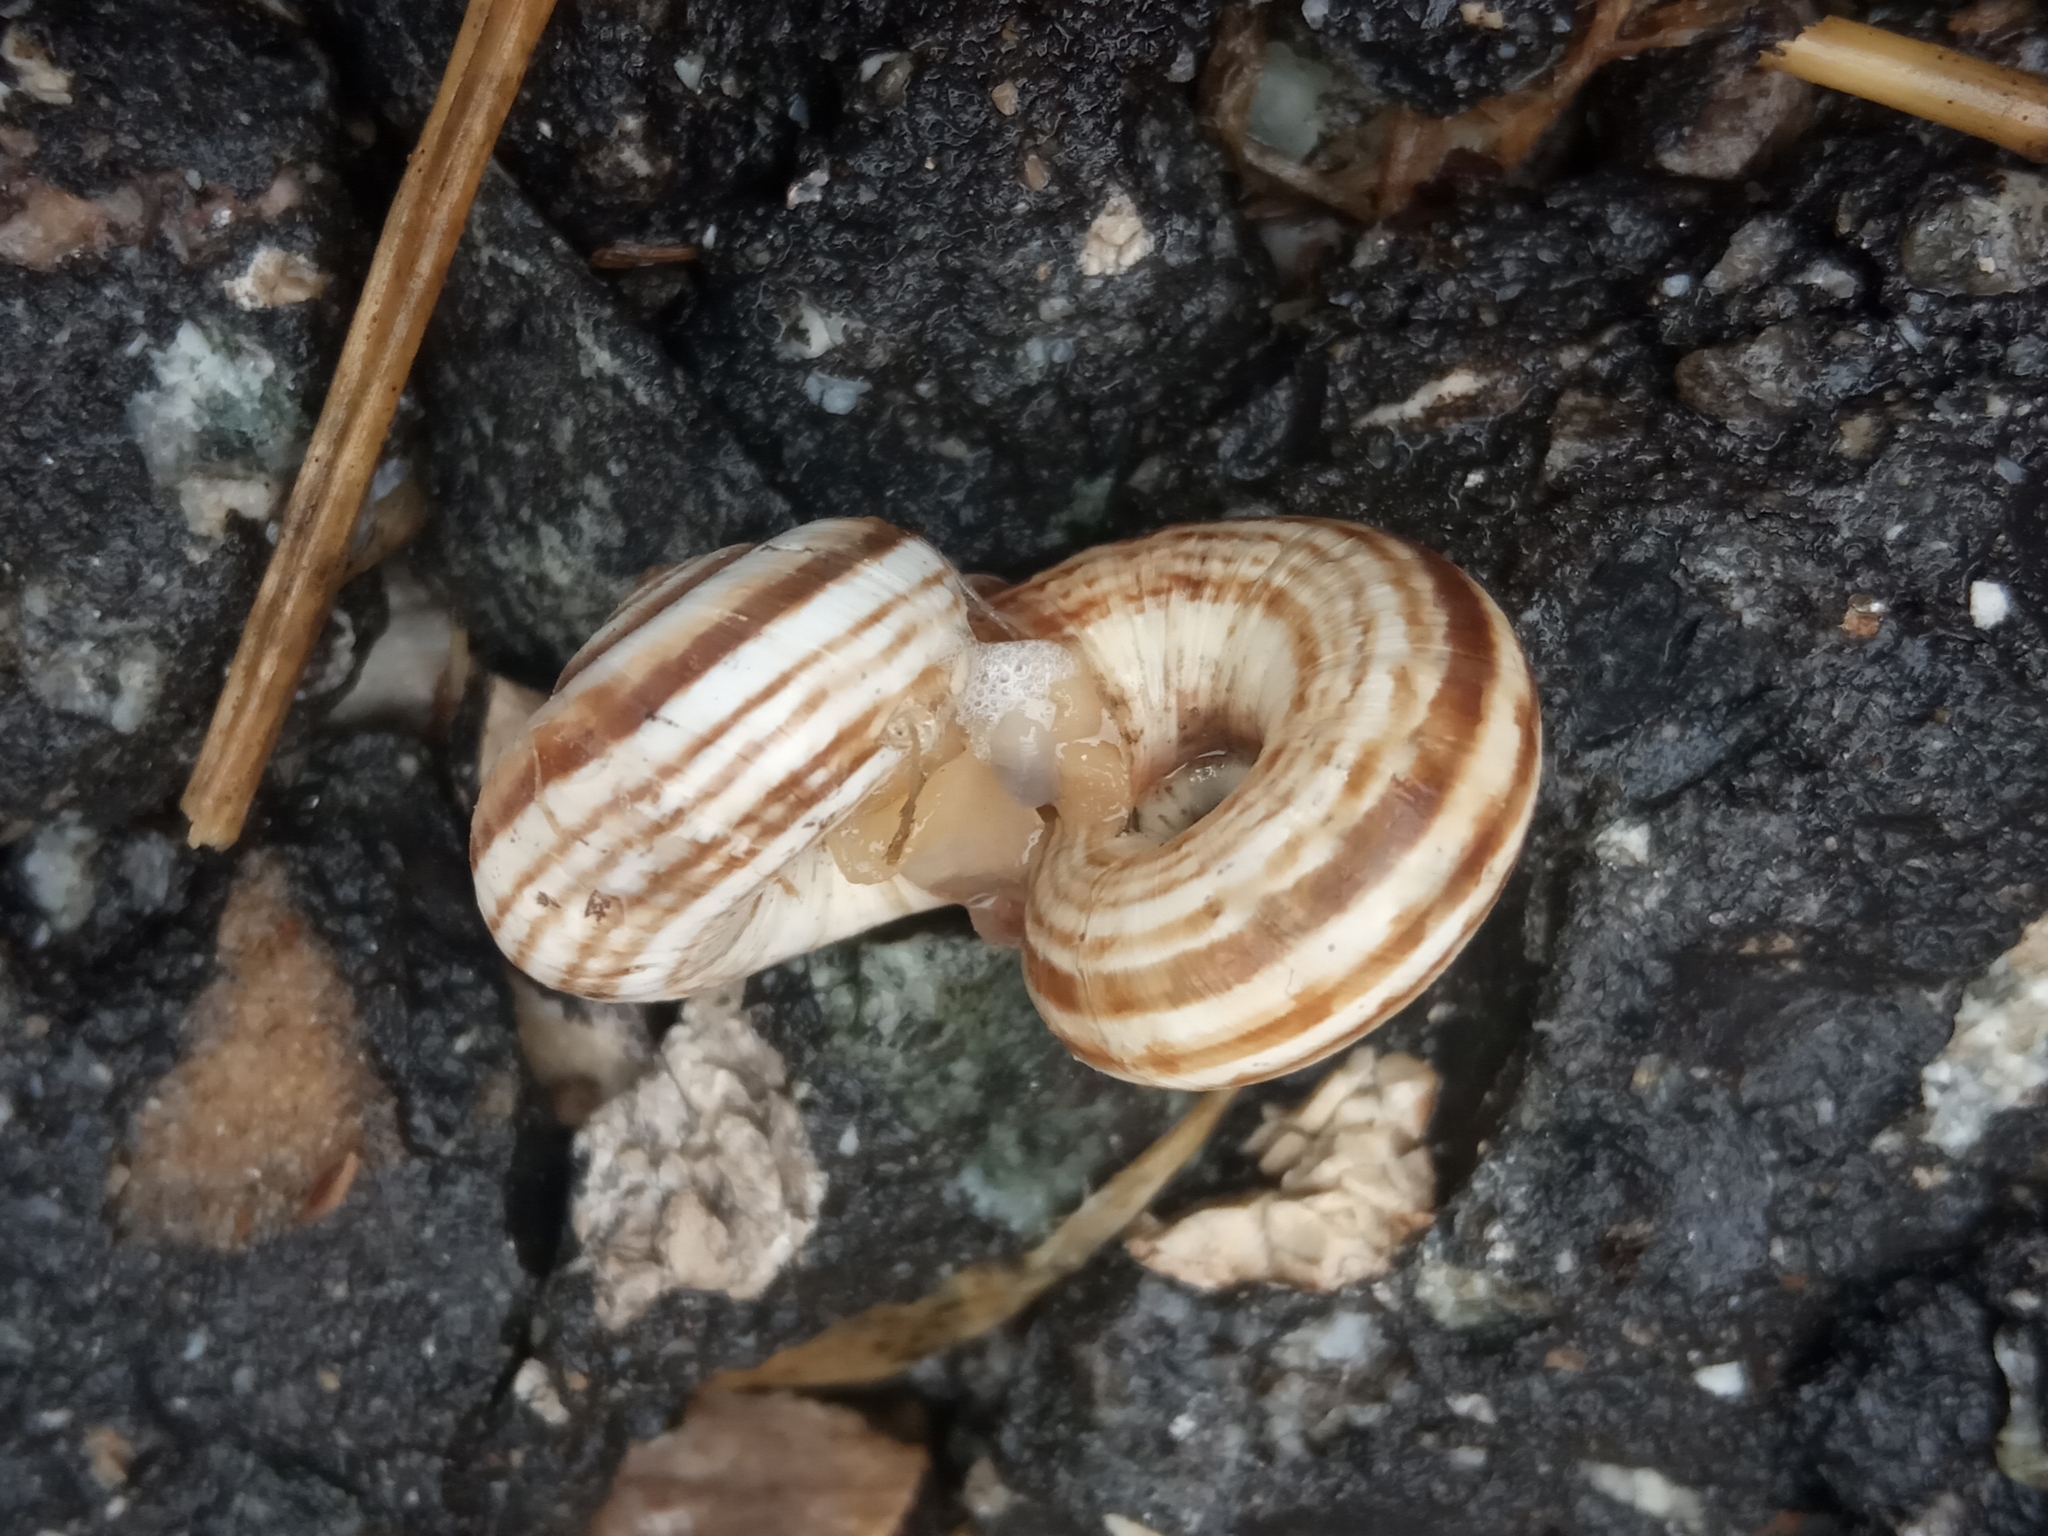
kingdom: Animalia
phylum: Mollusca
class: Gastropoda
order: Stylommatophora
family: Geomitridae
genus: Xeropicta
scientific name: Xeropicta derbentina
